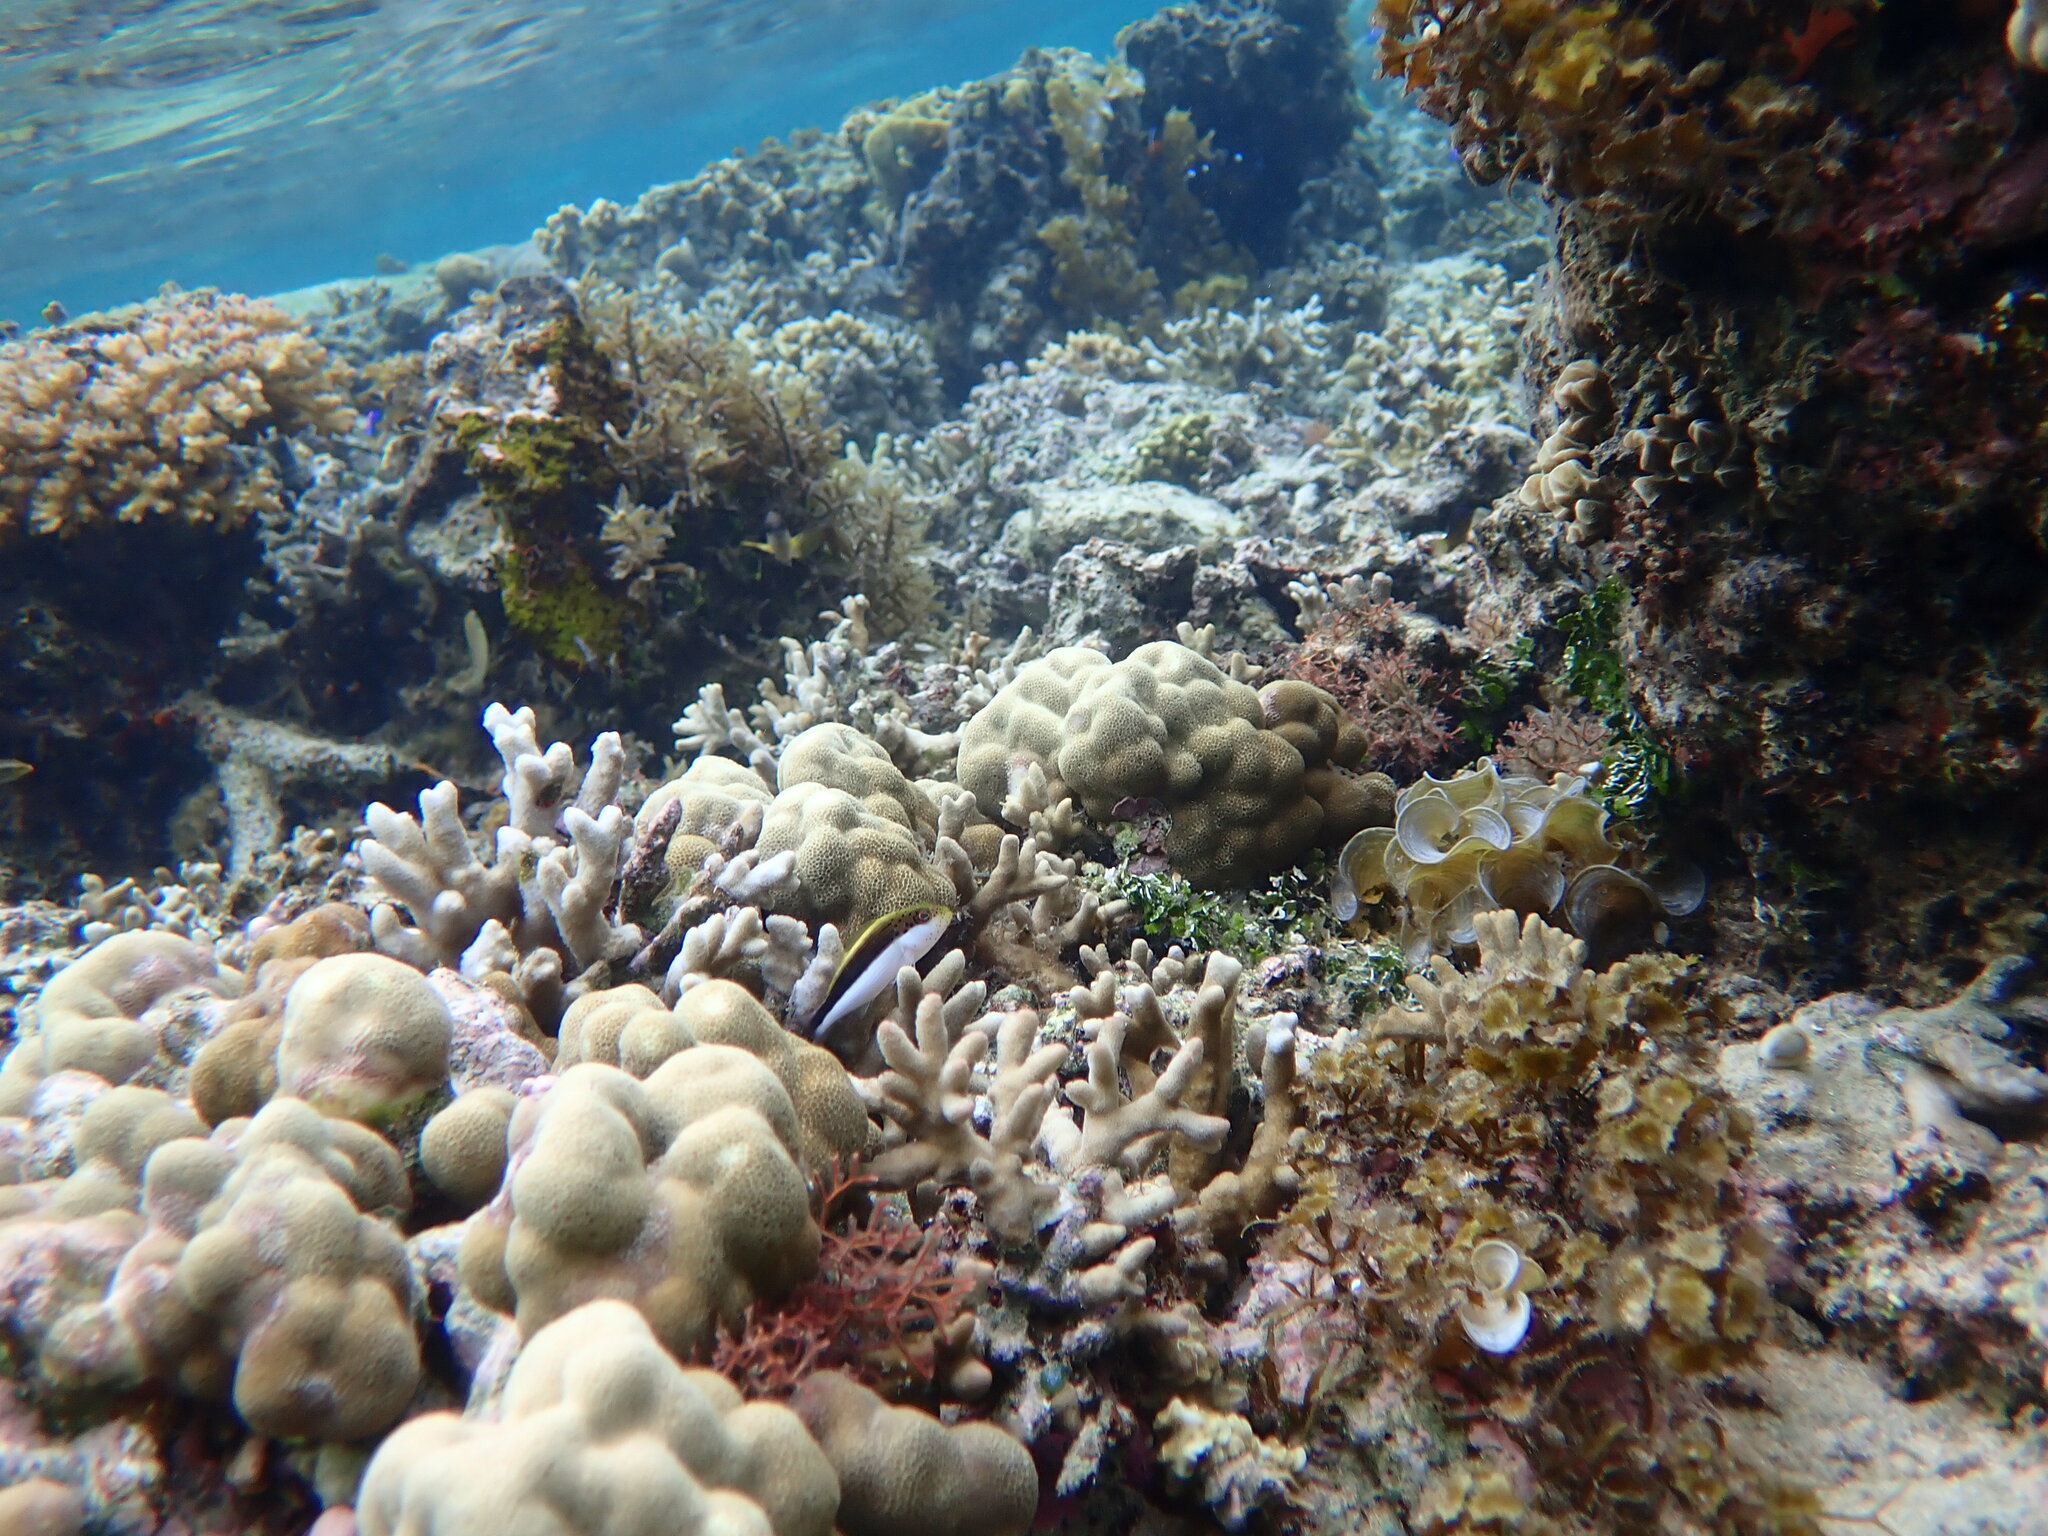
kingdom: Animalia
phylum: Chordata
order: Perciformes
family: Cirrhitidae
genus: Paracirrhites
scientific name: Paracirrhites forsteri
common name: Freckled hawkfish
